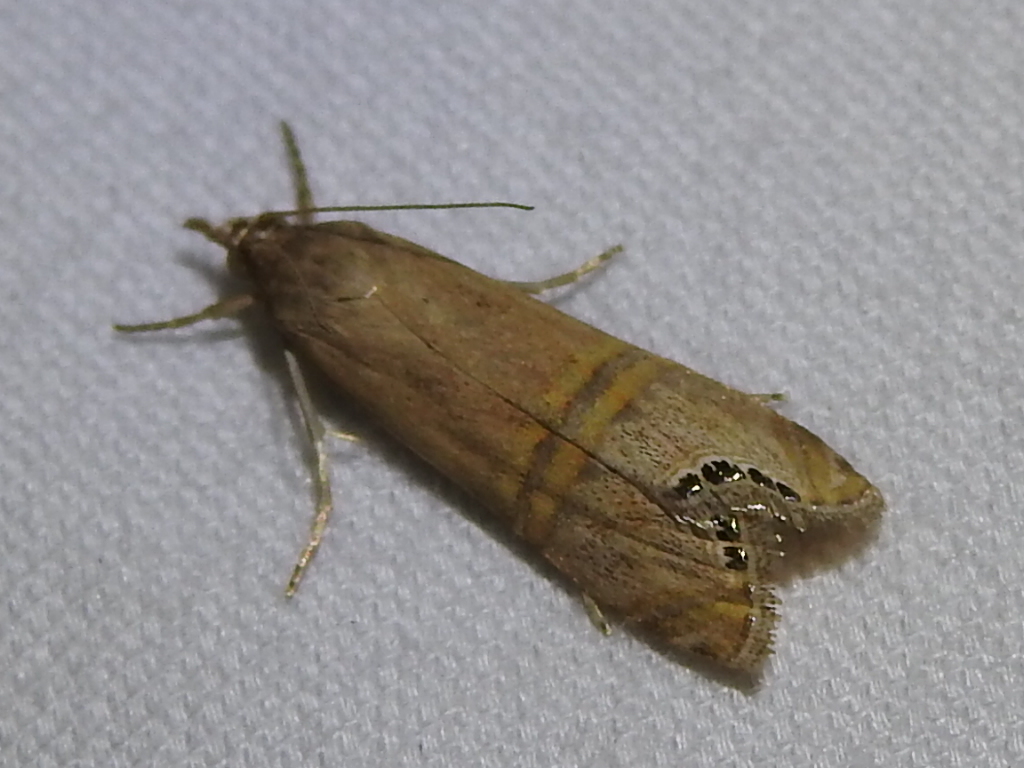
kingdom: Animalia
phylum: Arthropoda
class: Insecta
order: Lepidoptera
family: Crambidae
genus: Euchromius
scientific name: Euchromius ocellea
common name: Necklace veneer moth
